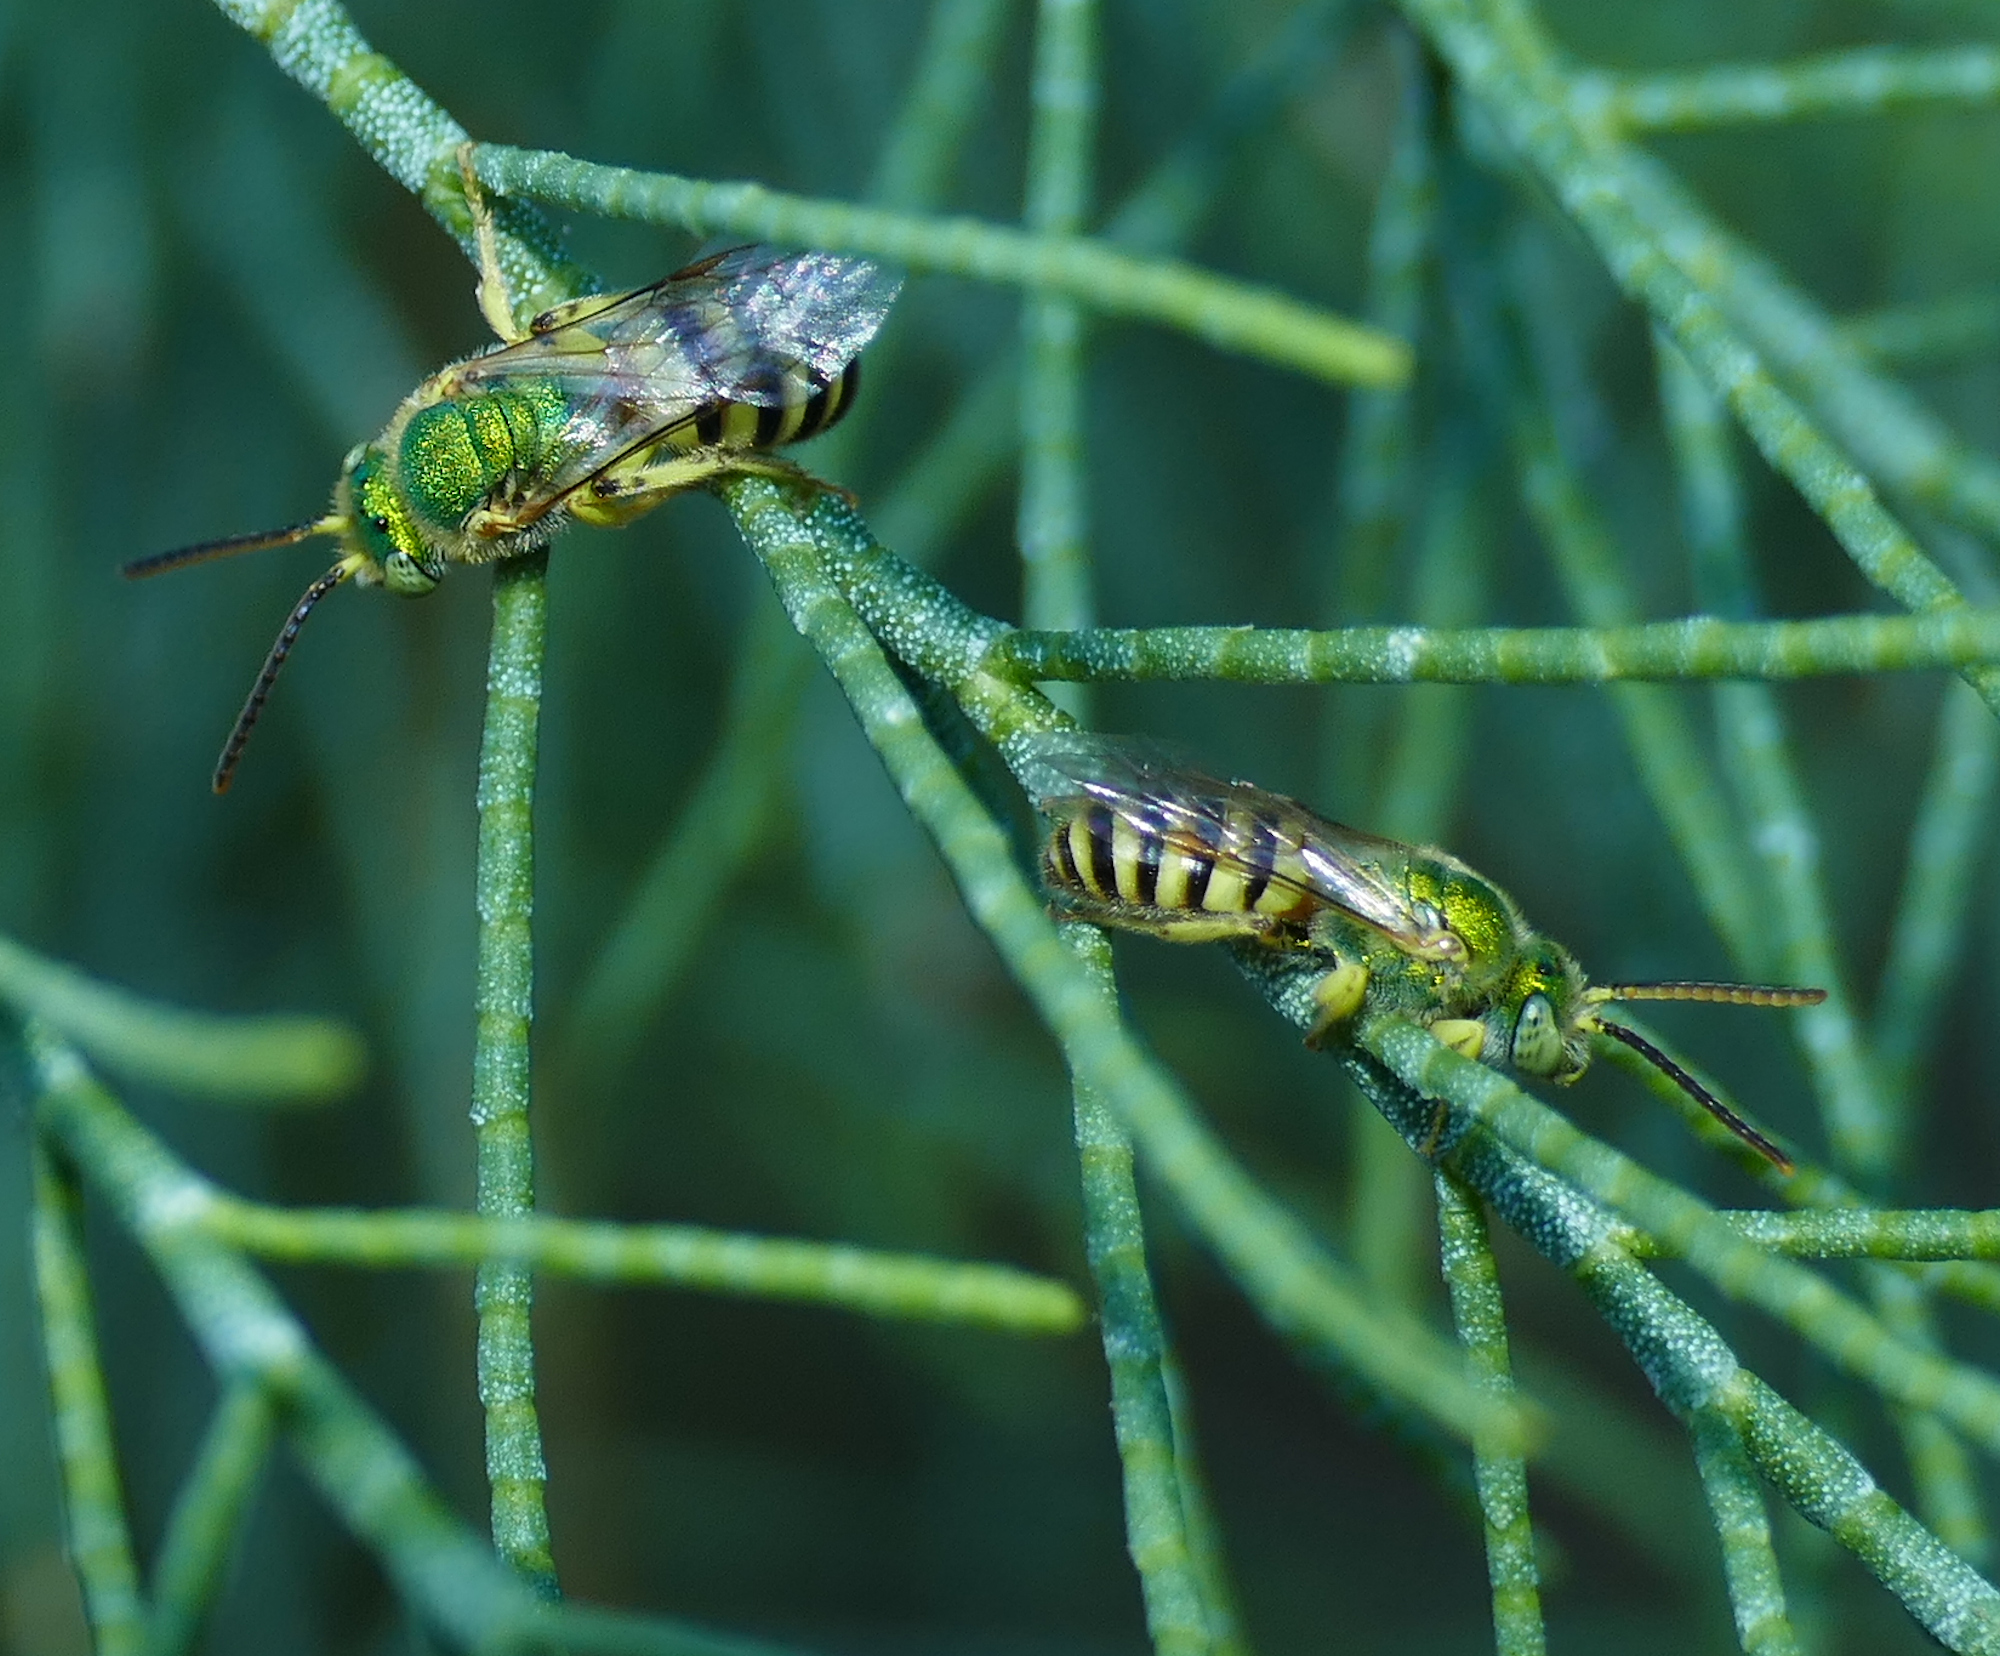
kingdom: Animalia
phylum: Arthropoda
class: Insecta
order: Hymenoptera
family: Halictidae
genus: Agapostemon
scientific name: Agapostemon melliventris
